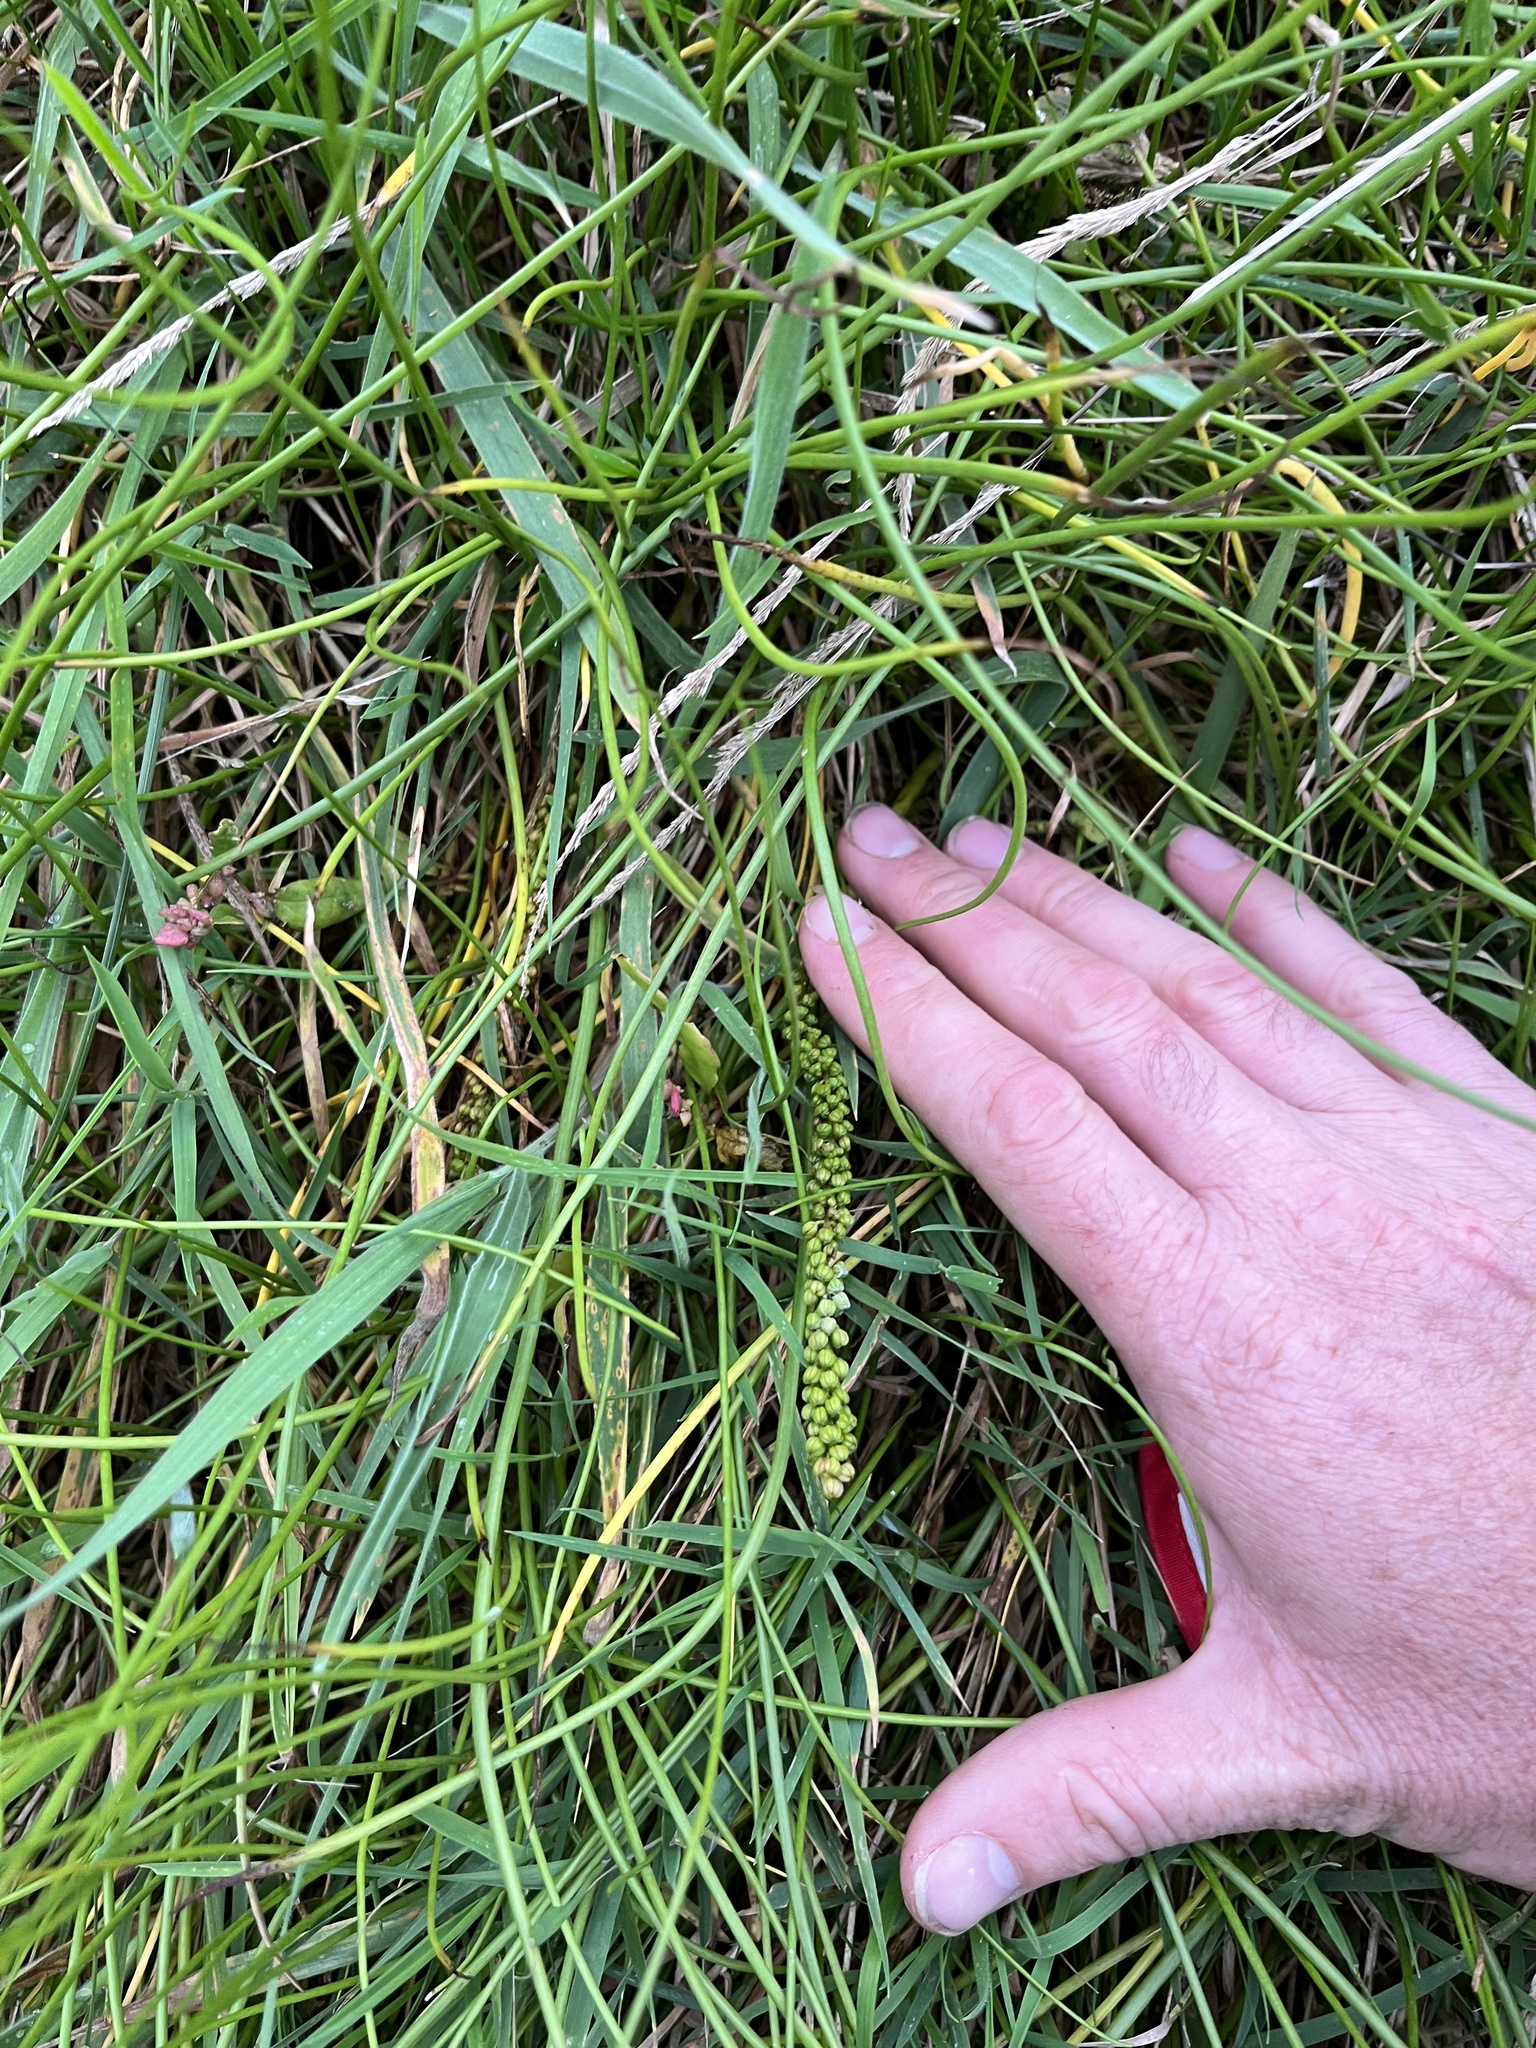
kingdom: Plantae
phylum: Tracheophyta
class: Liliopsida
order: Alismatales
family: Juncaginaceae
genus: Triglochin
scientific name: Triglochin striata
